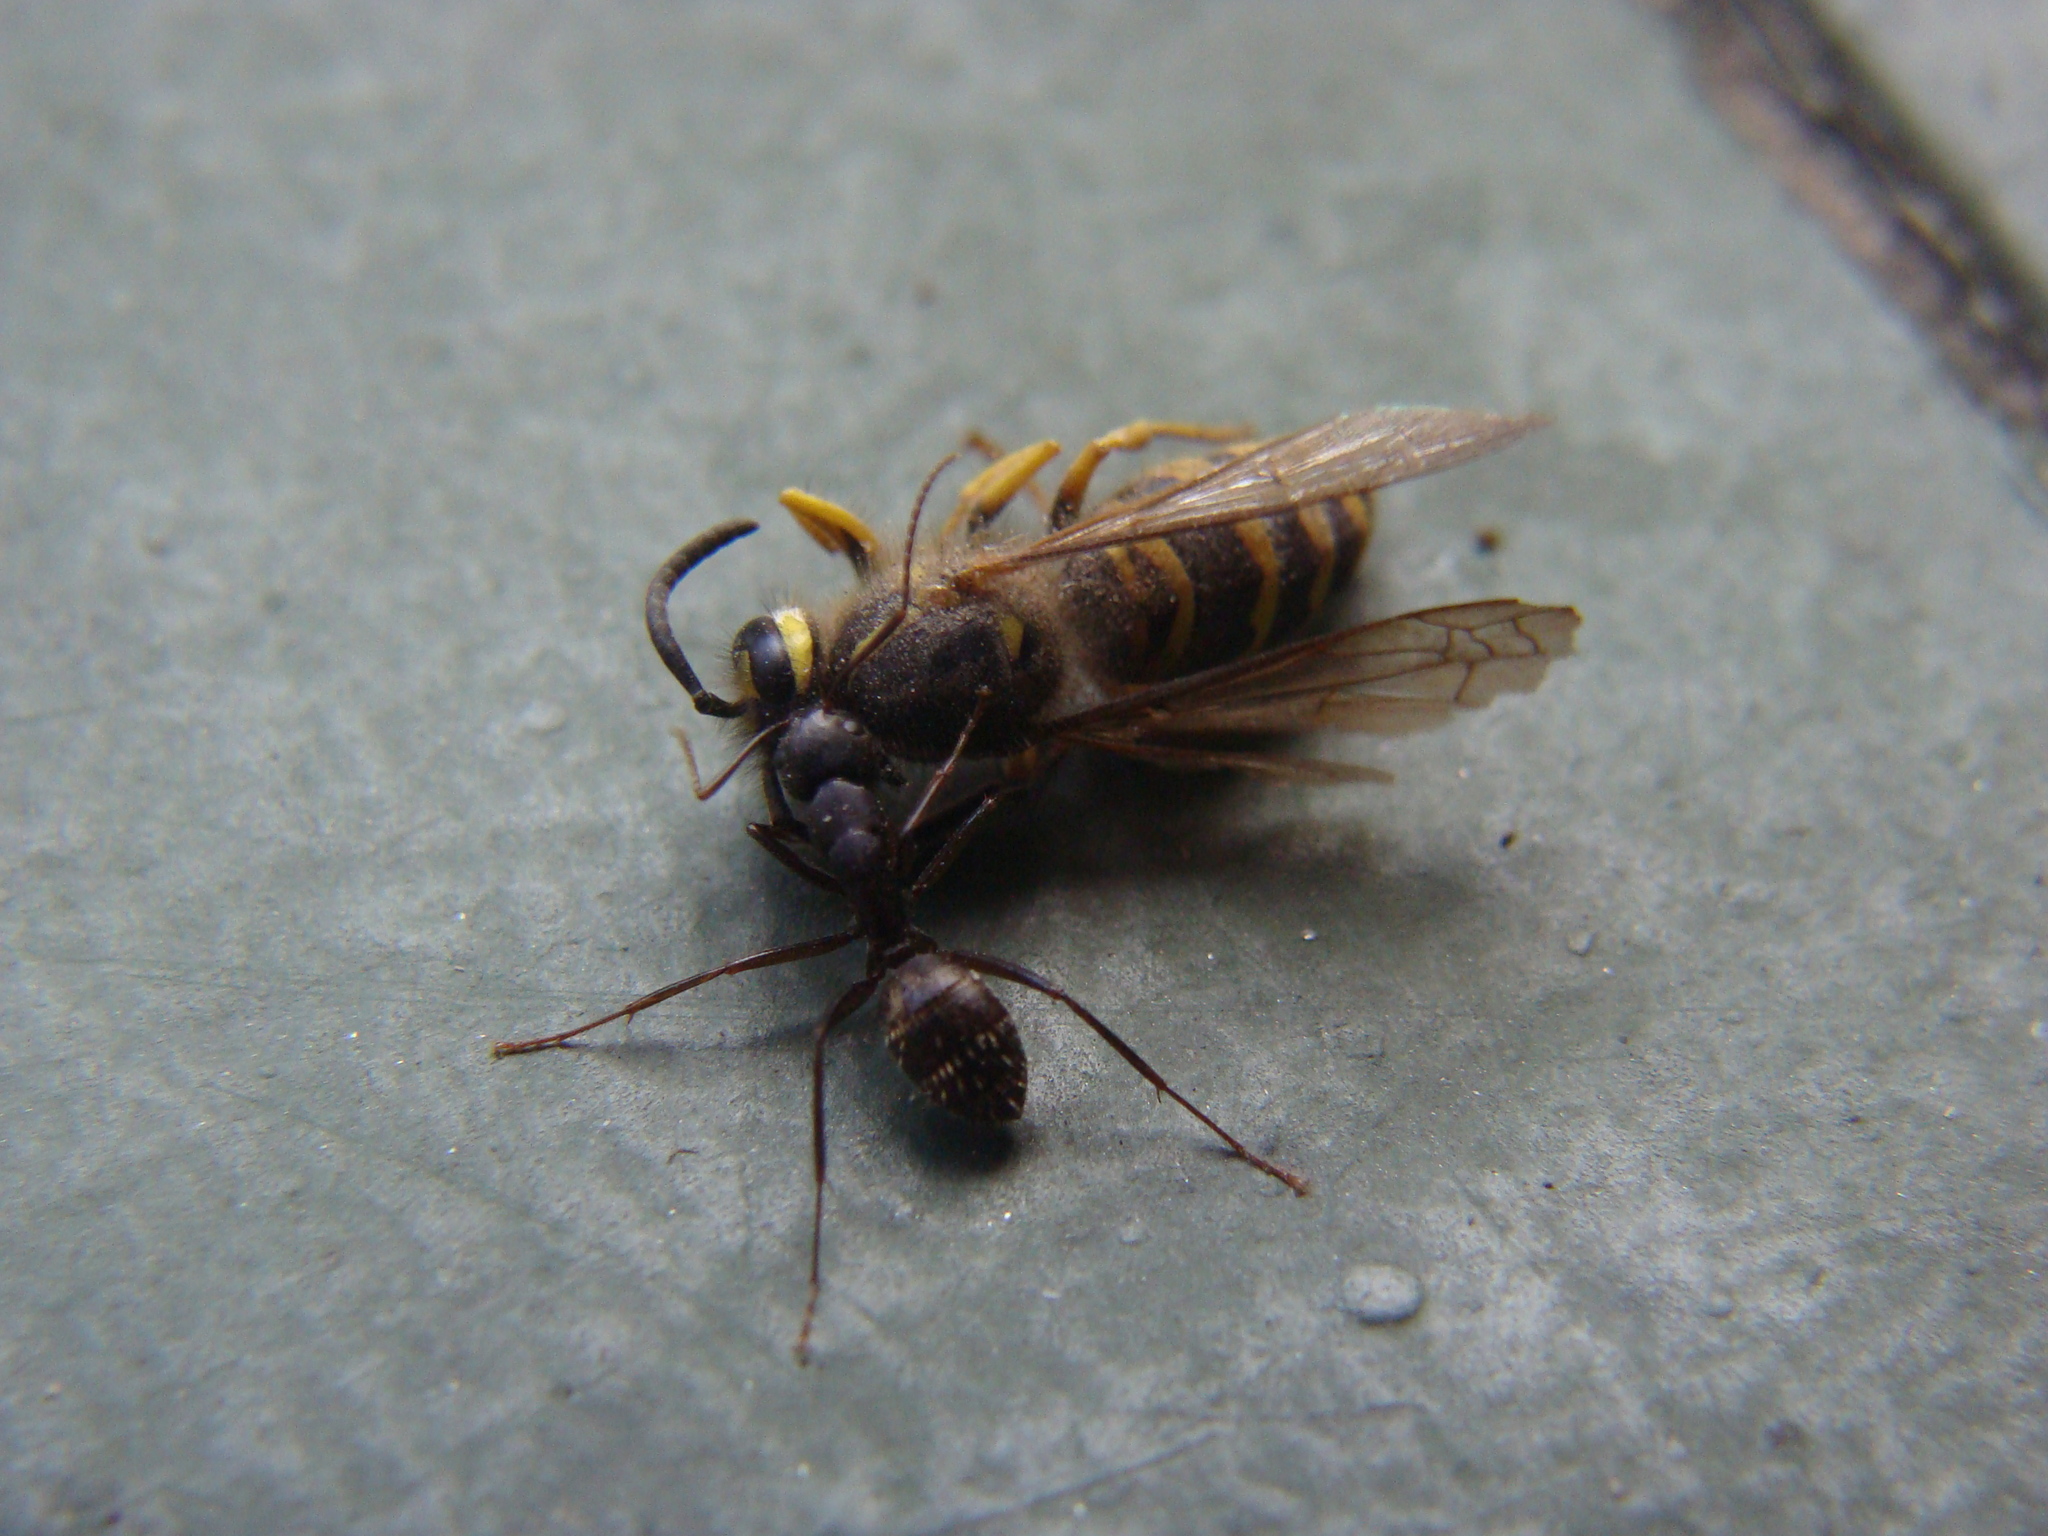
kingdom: Animalia
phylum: Arthropoda
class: Insecta
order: Hymenoptera
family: Formicidae
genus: Camponotus
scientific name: Camponotus pennsylvanicus
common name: Black carpenter ant
